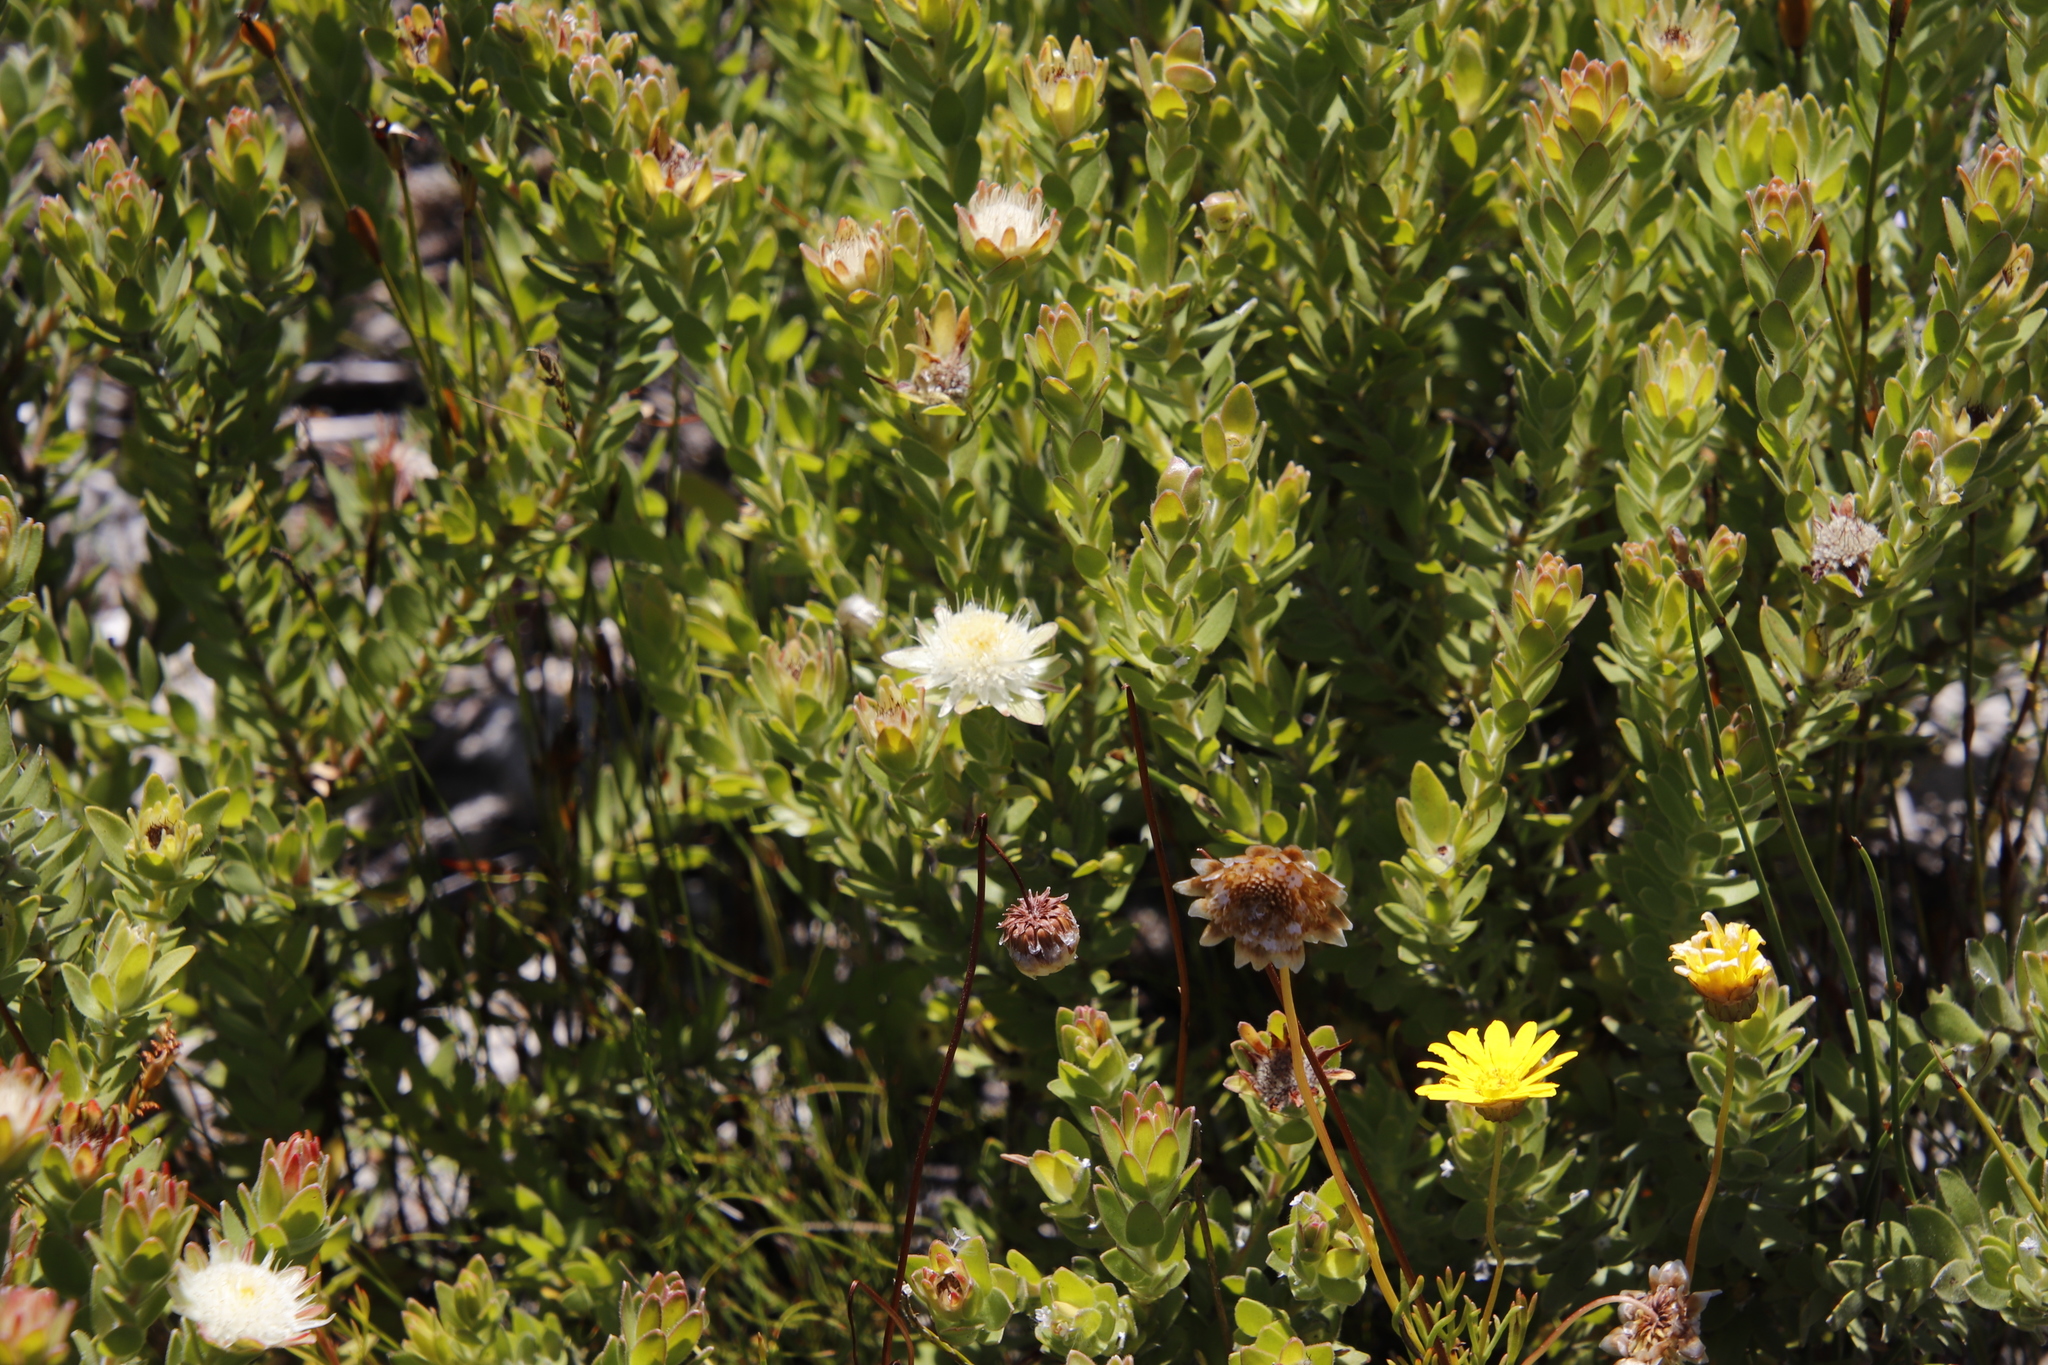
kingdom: Plantae
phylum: Tracheophyta
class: Magnoliopsida
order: Proteales
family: Proteaceae
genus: Diastella
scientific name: Diastella thymelaeoides
